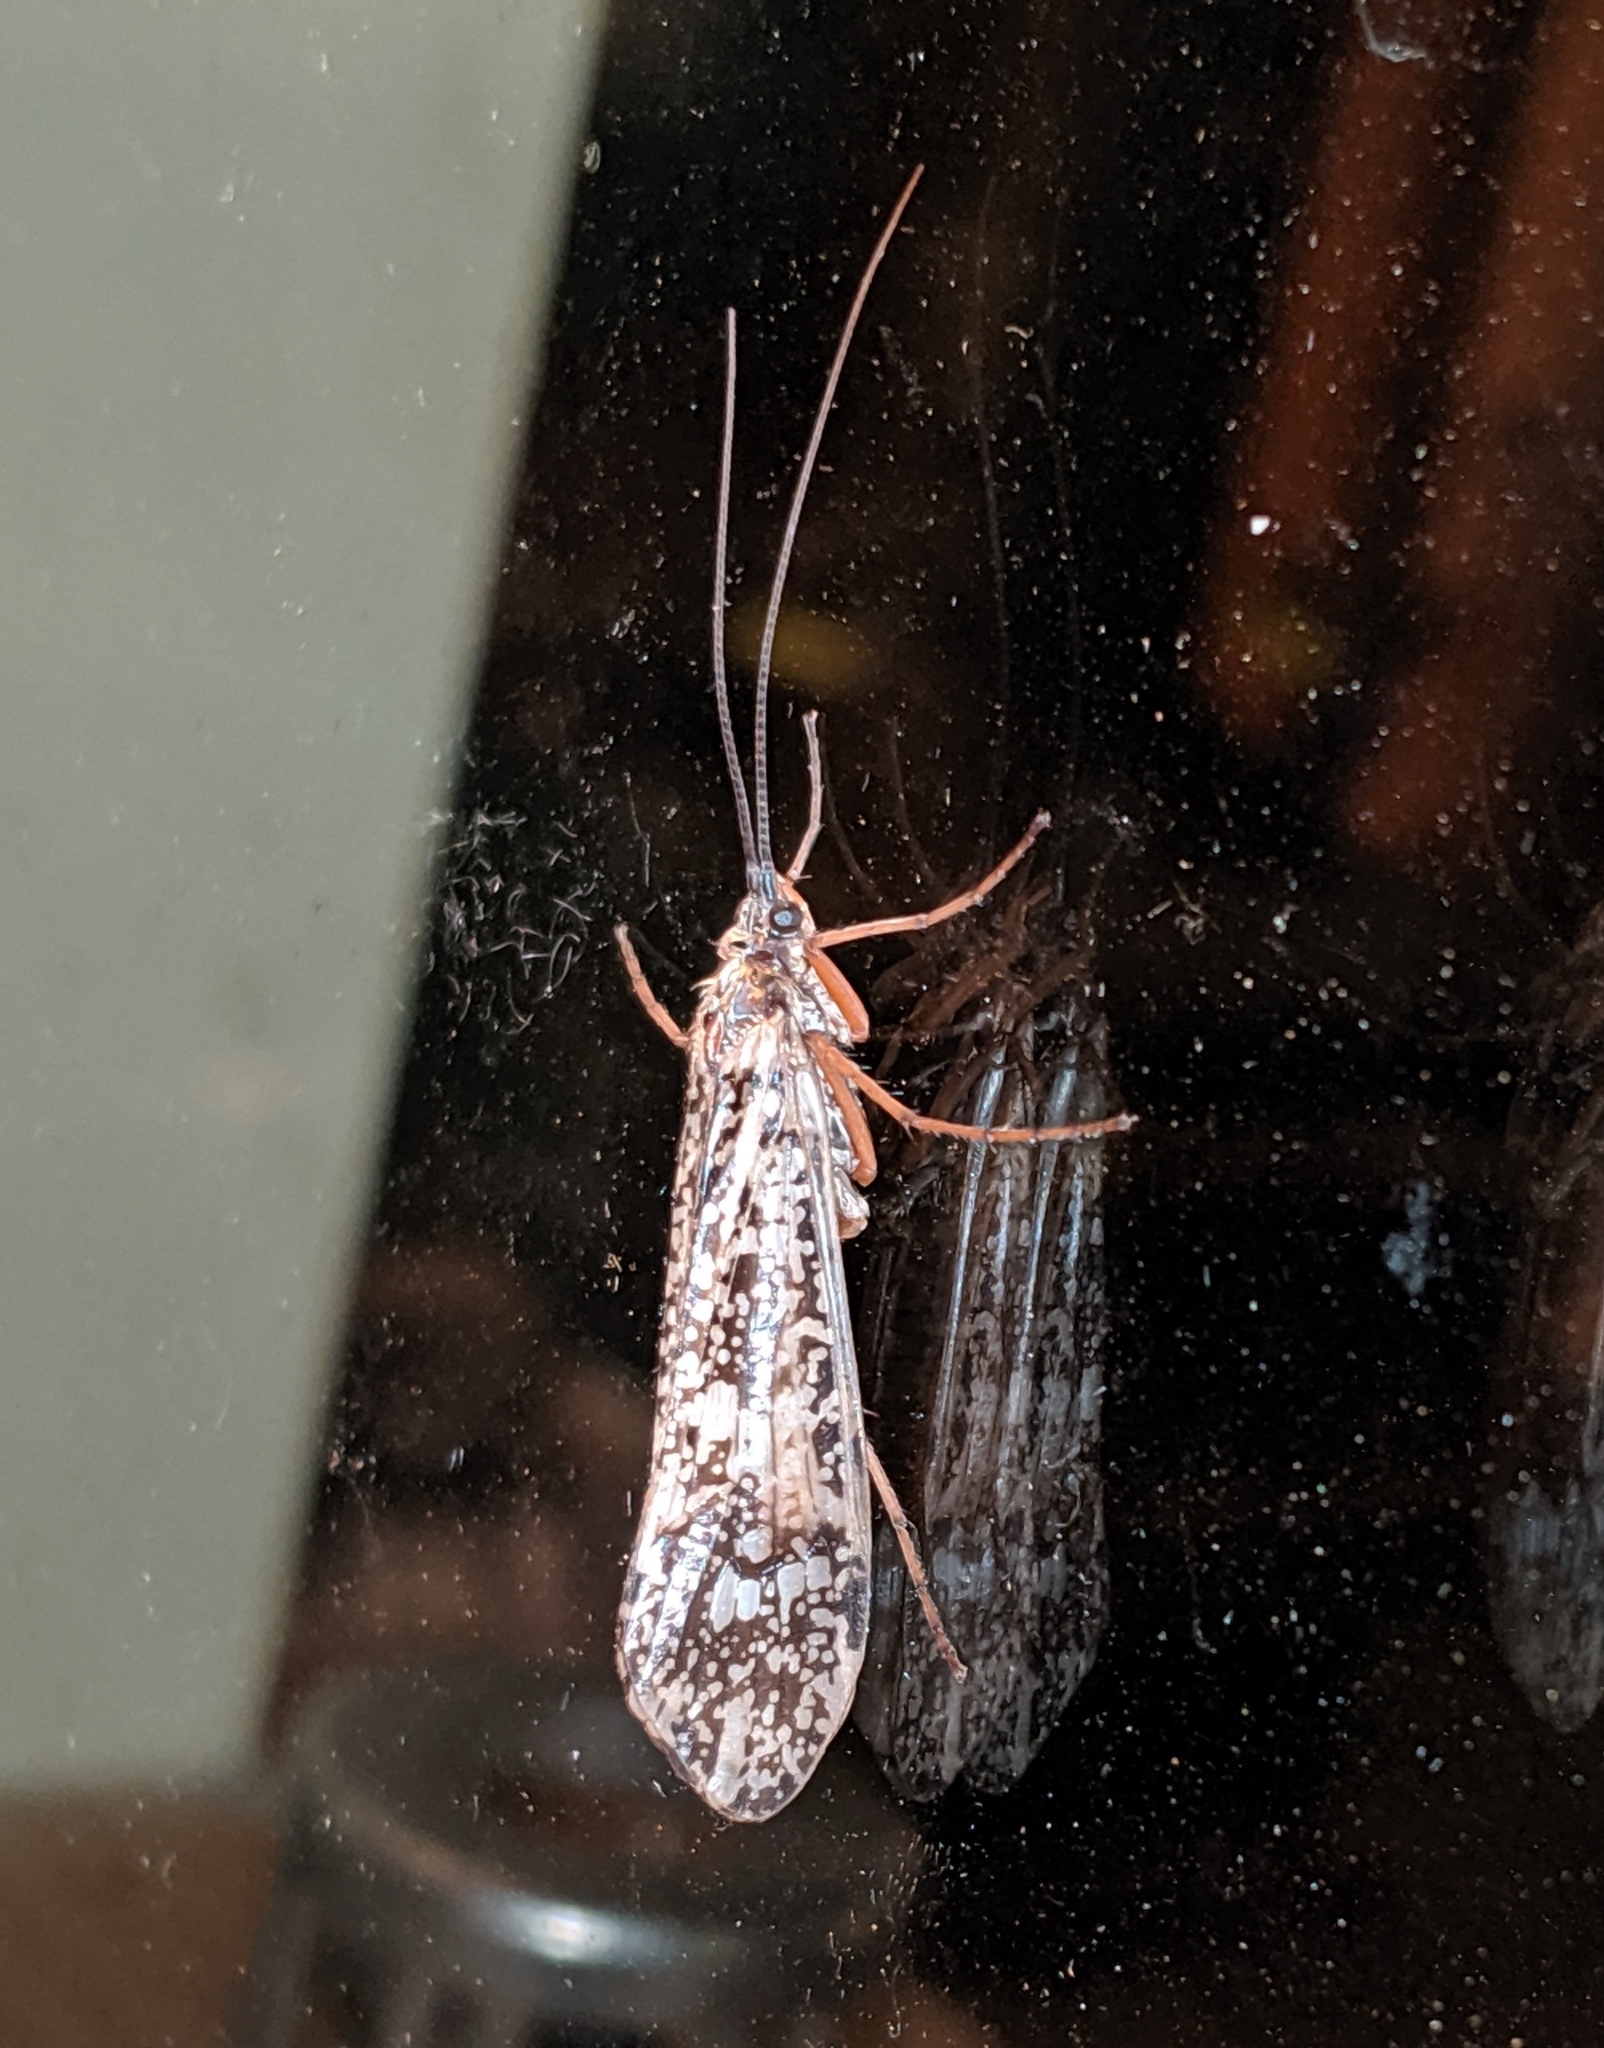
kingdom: Animalia
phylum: Arthropoda
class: Insecta
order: Trichoptera
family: Limnephilidae
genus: Clistoronia
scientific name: Clistoronia magnifica
